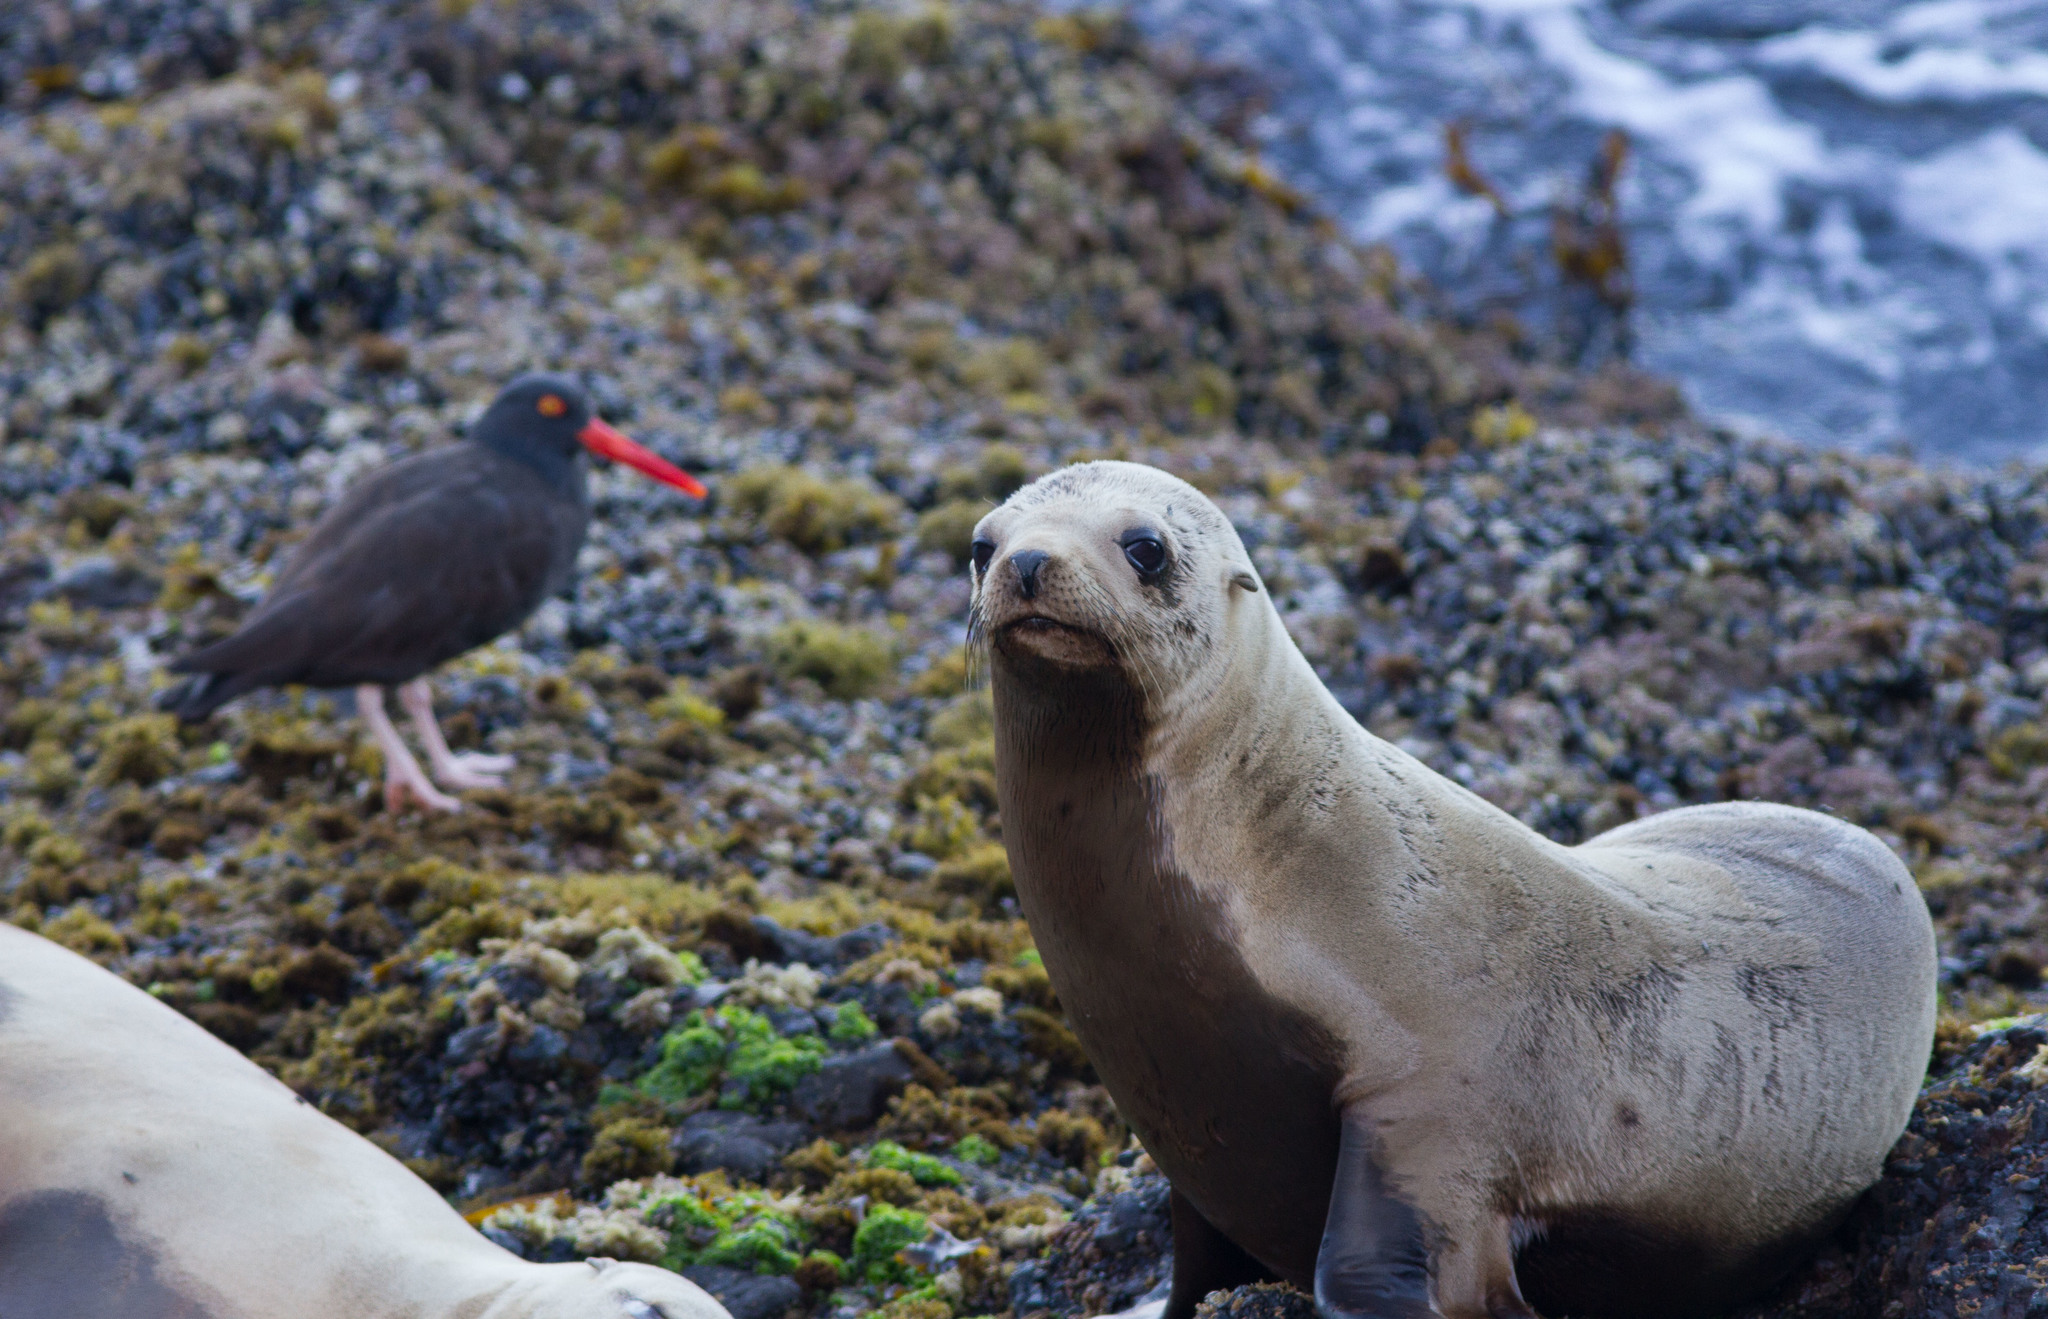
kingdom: Animalia
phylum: Chordata
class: Mammalia
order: Carnivora
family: Otariidae
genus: Zalophus
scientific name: Zalophus californianus
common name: California sea lion
